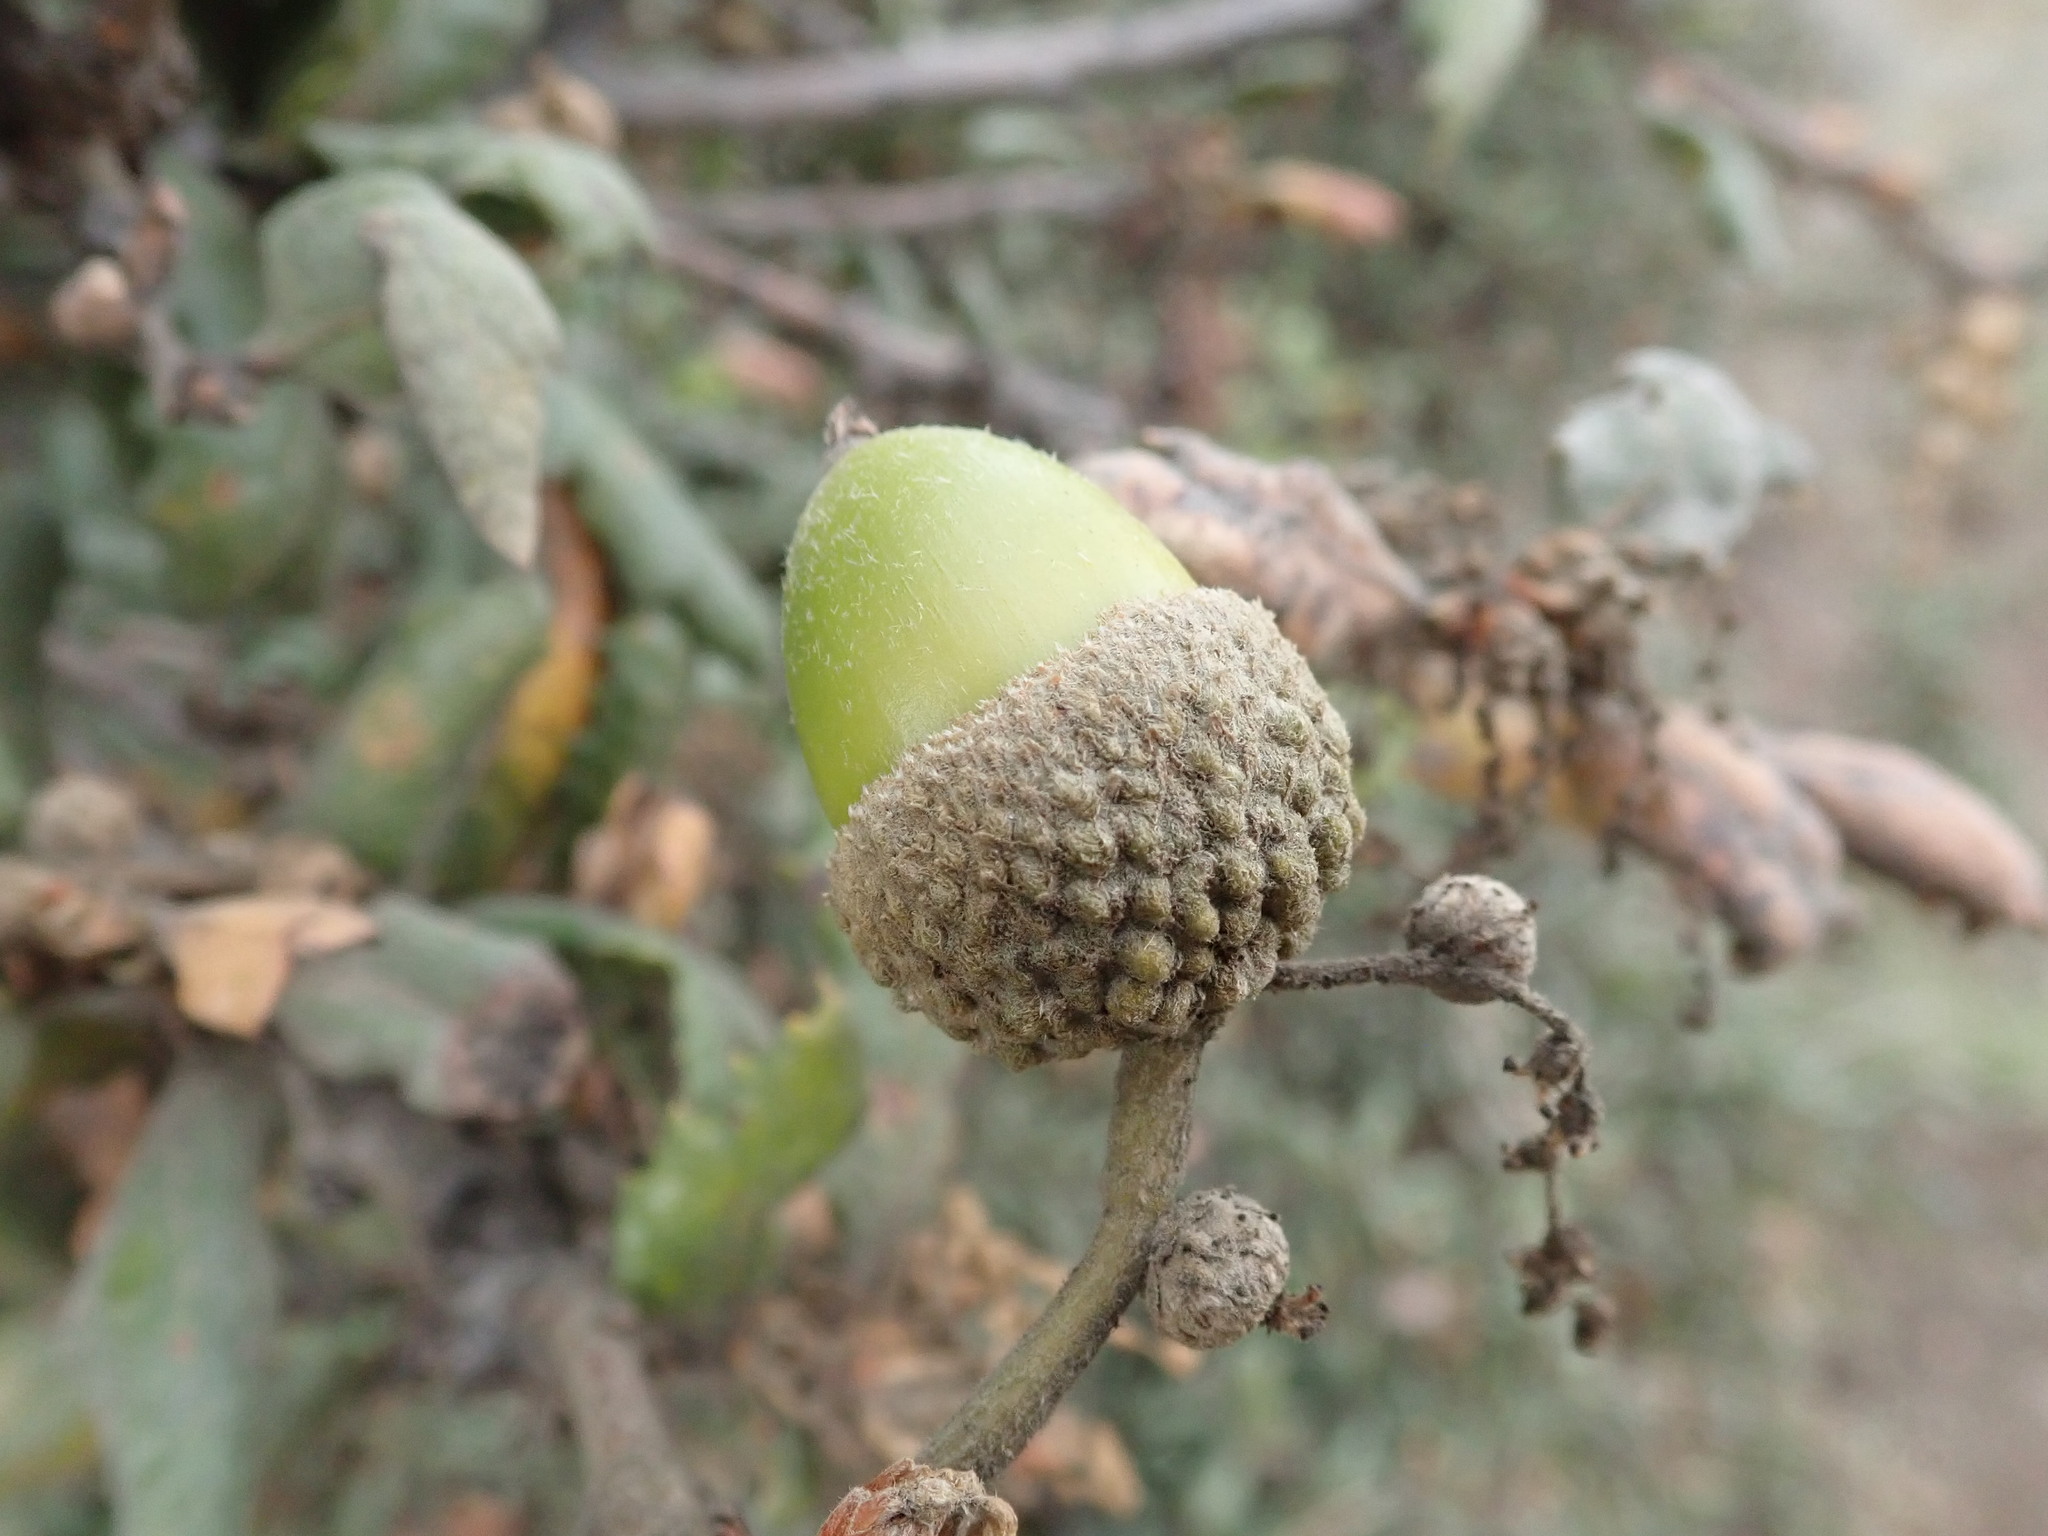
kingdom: Plantae
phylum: Tracheophyta
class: Magnoliopsida
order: Fagales
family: Fagaceae
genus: Quercus
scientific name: Quercus durata
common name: Leather oak
